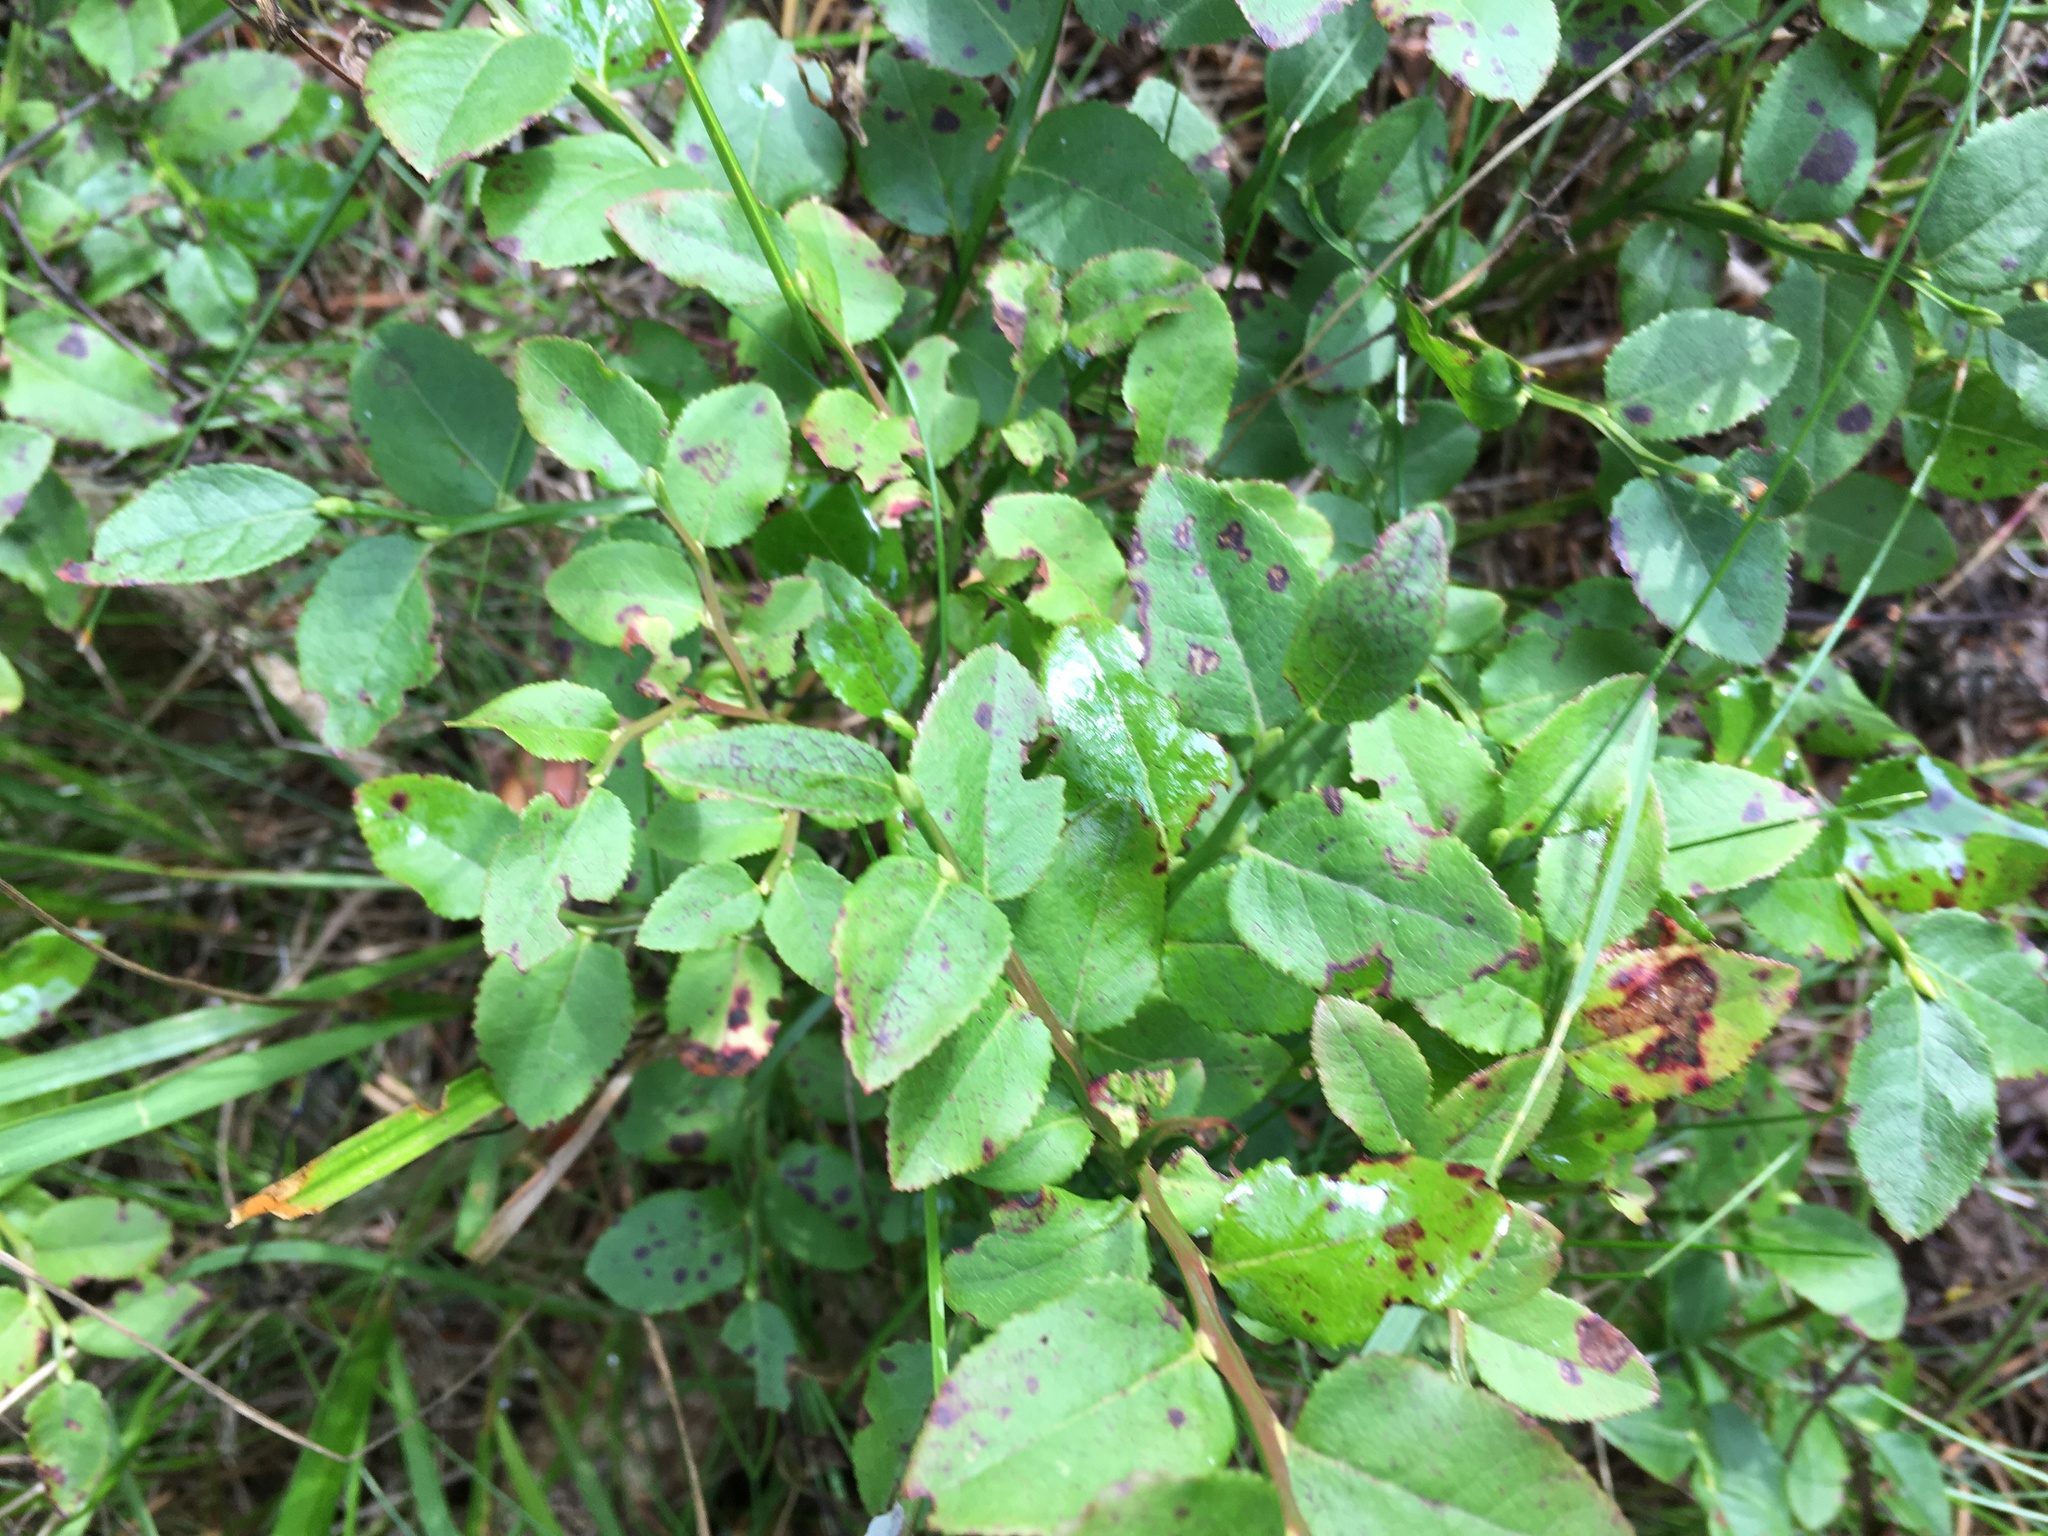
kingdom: Plantae
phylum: Tracheophyta
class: Magnoliopsida
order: Ericales
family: Ericaceae
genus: Vaccinium
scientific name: Vaccinium myrtillus
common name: Bilberry
